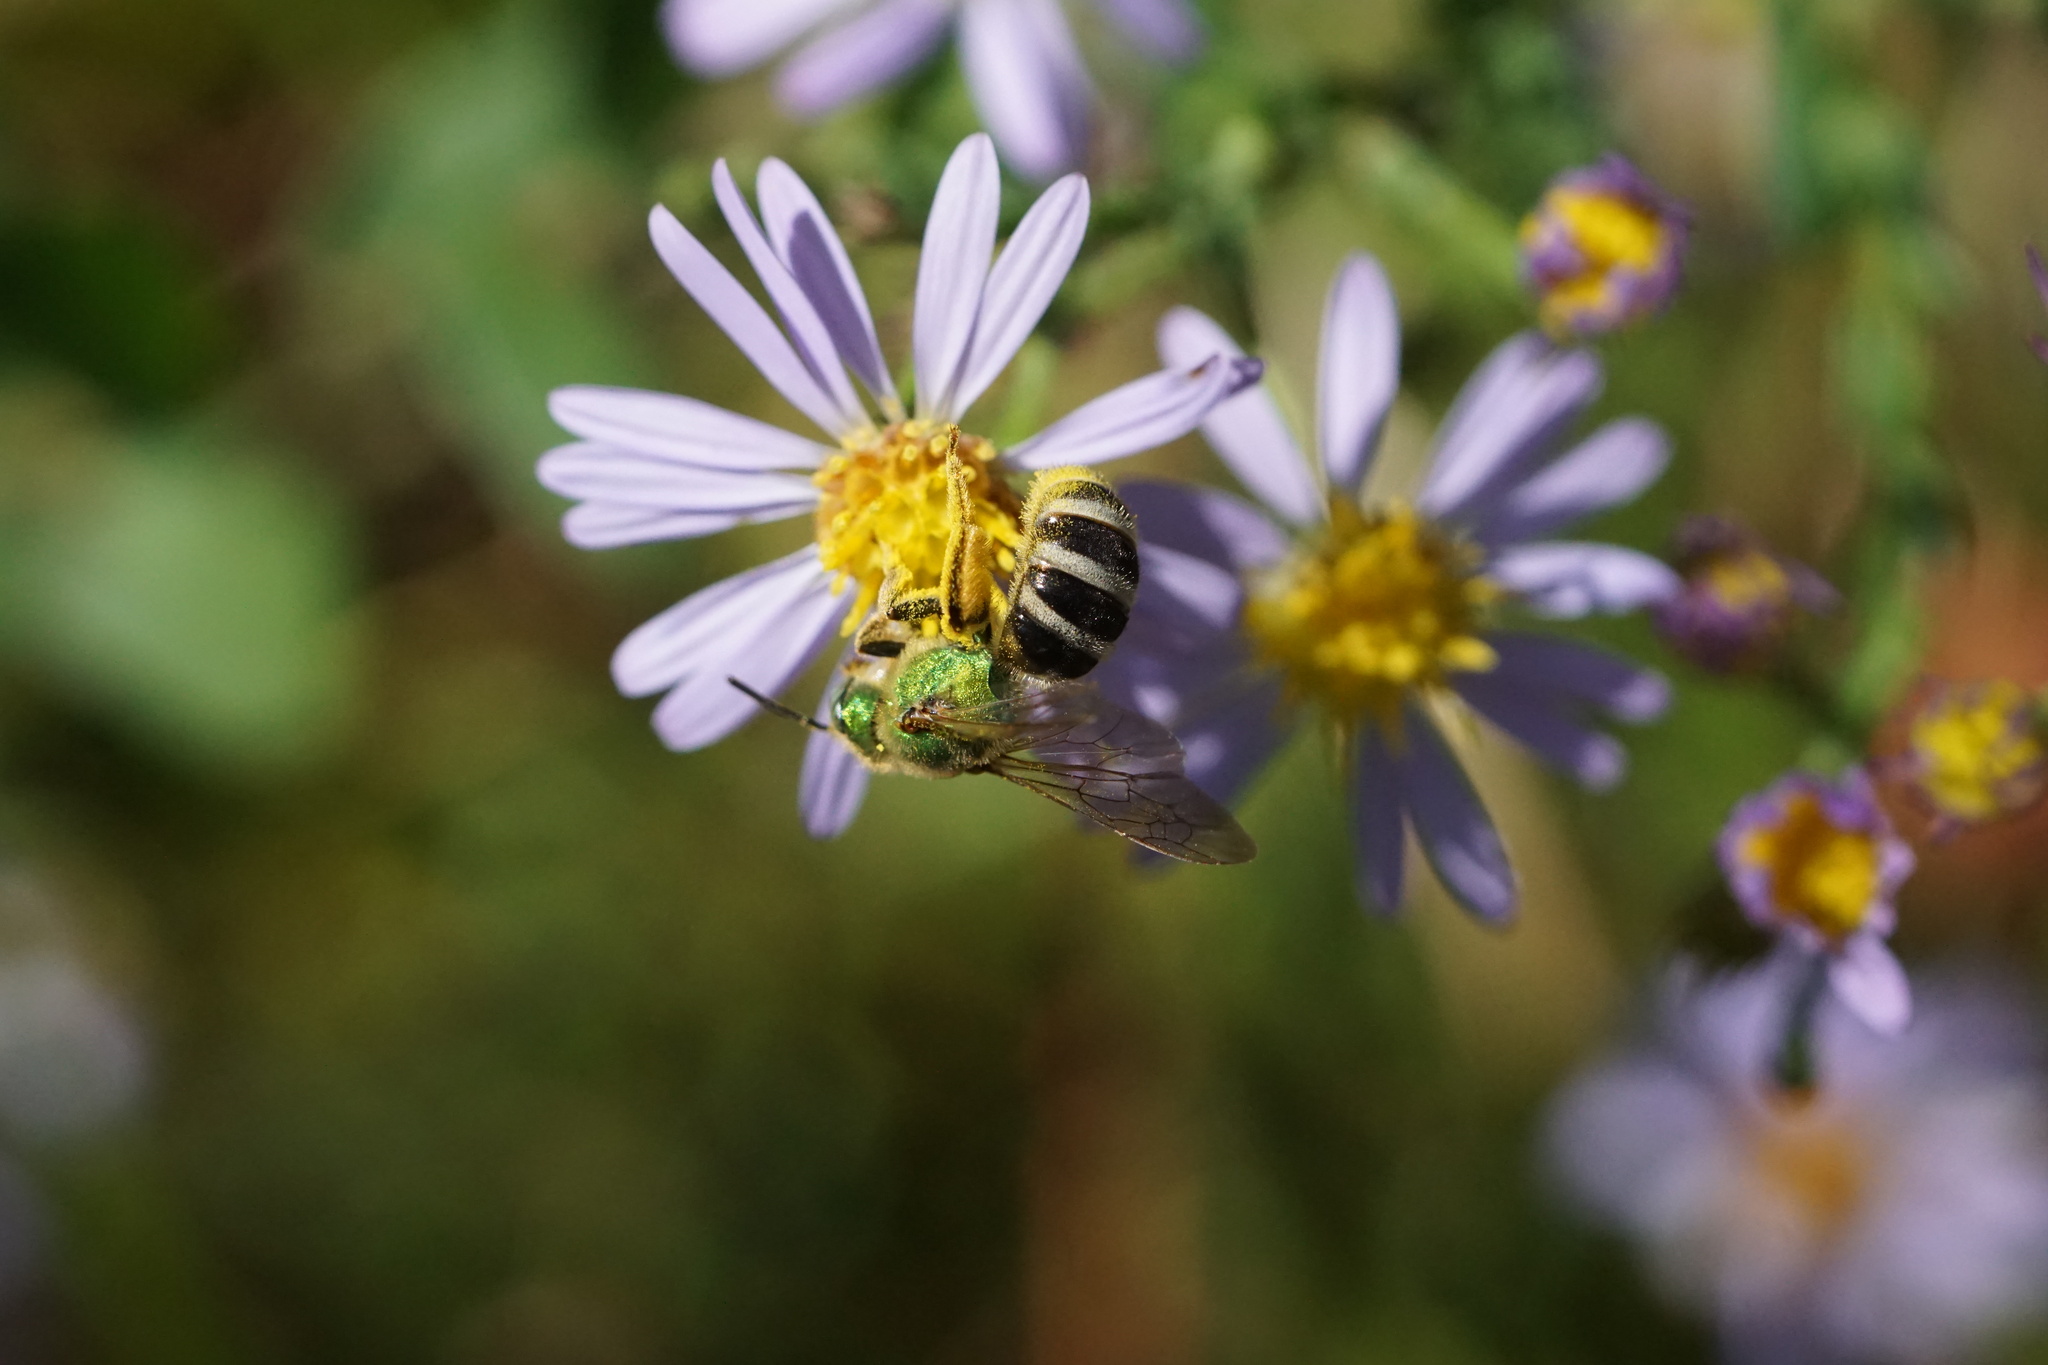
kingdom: Animalia
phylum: Arthropoda
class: Insecta
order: Hymenoptera
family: Halictidae
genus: Agapostemon
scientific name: Agapostemon virescens
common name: Bicolored striped sweat bee
